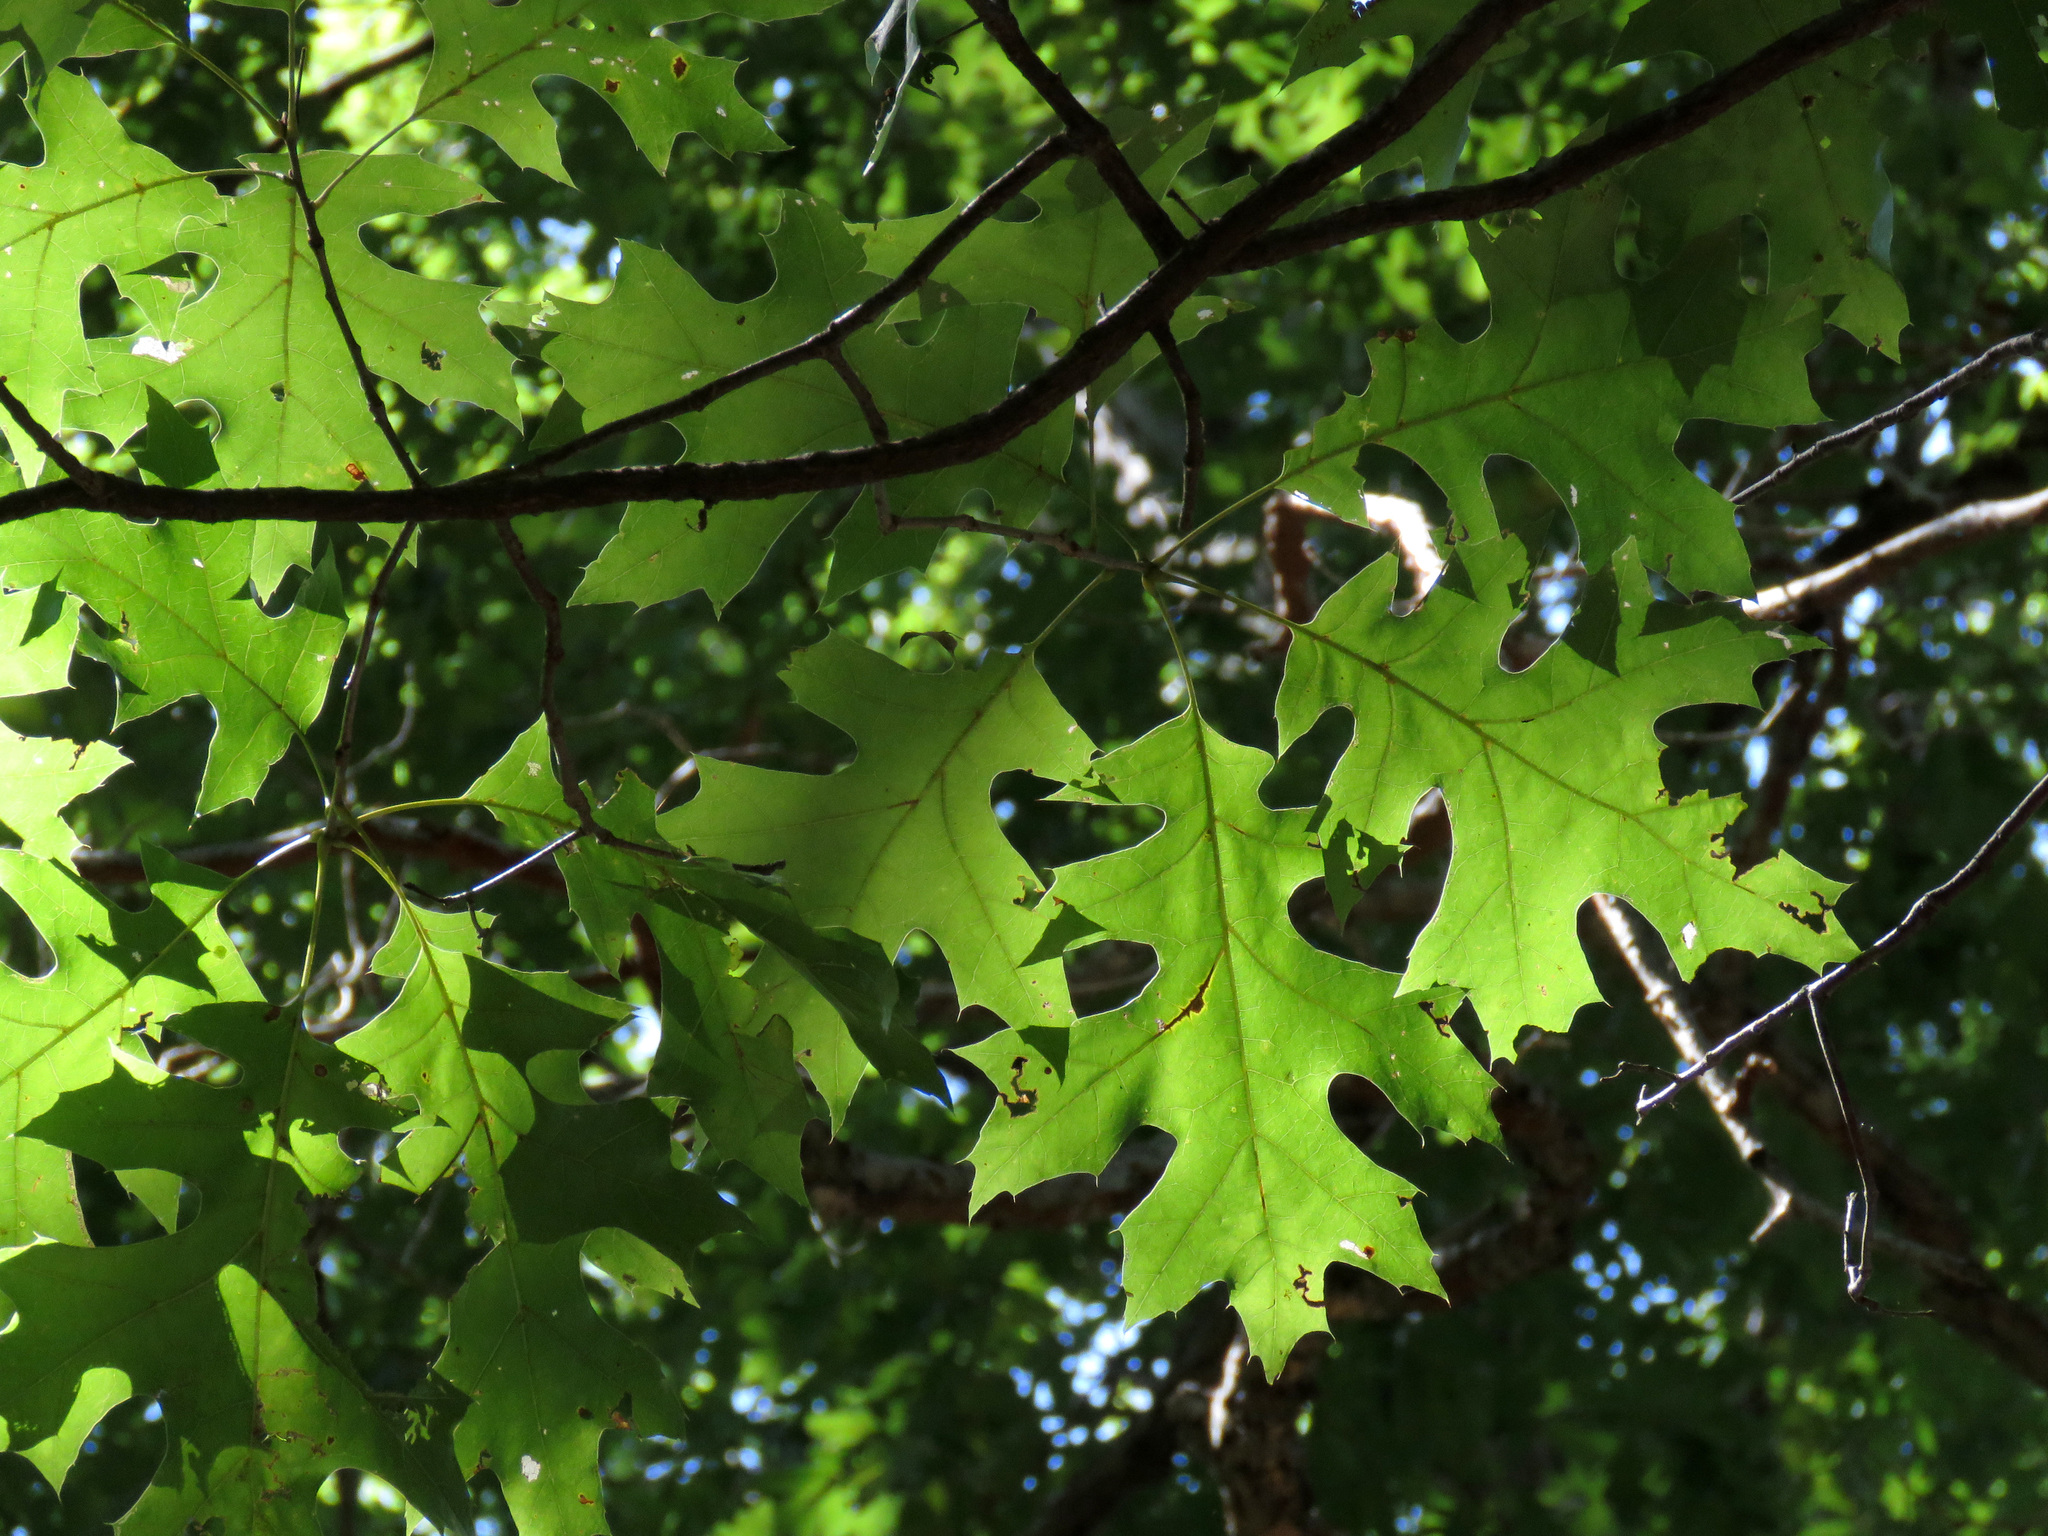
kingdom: Plantae
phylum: Tracheophyta
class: Magnoliopsida
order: Fagales
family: Fagaceae
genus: Quercus
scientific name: Quercus rubra
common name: Red oak
